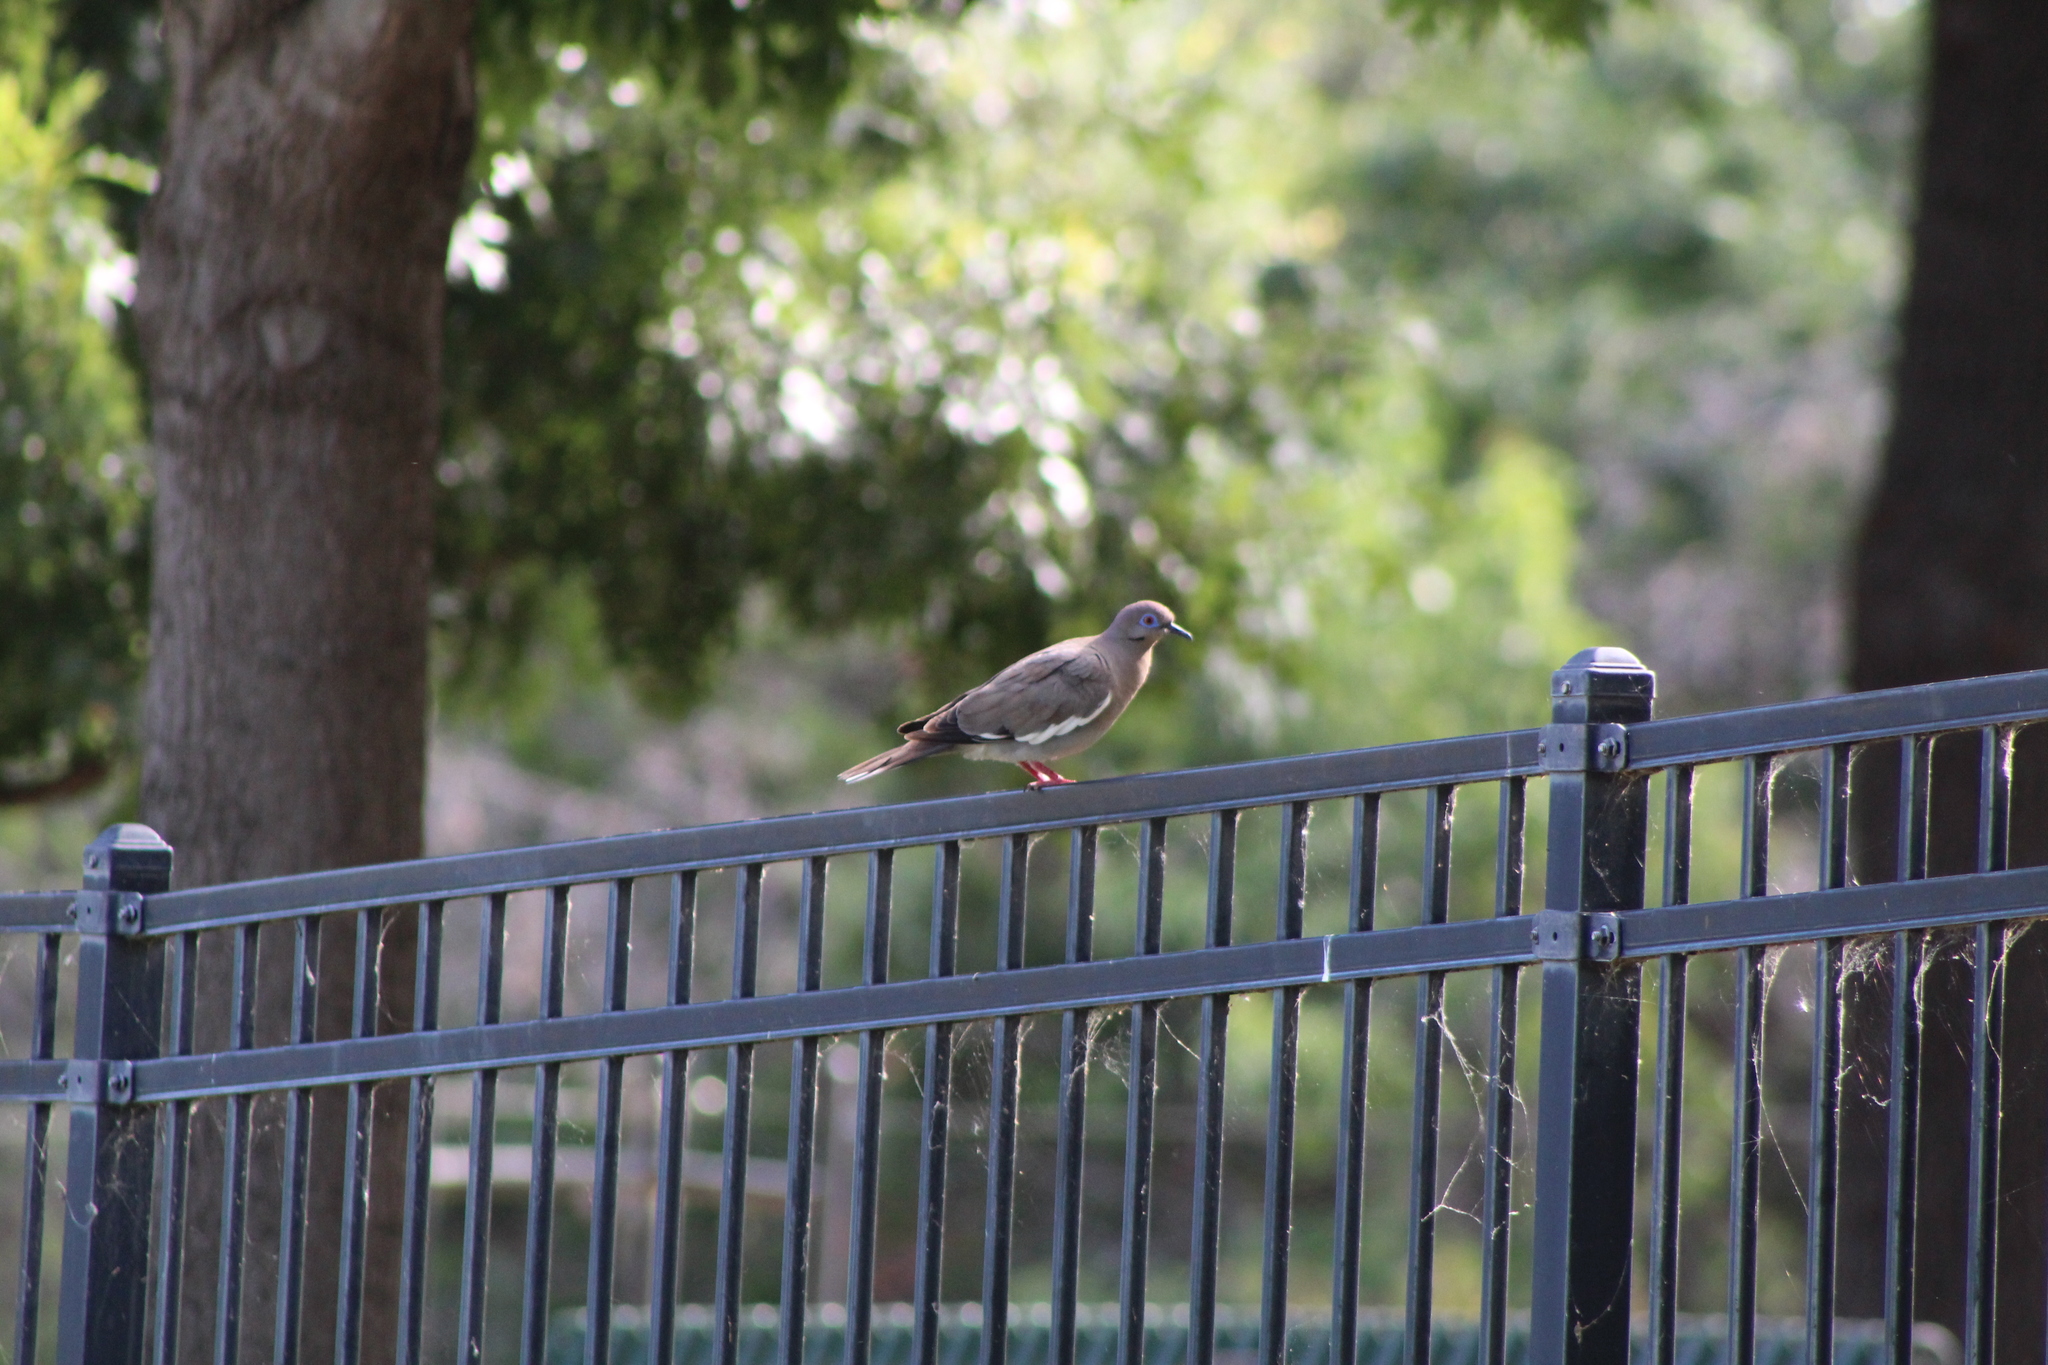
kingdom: Animalia
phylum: Chordata
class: Aves
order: Columbiformes
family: Columbidae
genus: Zenaida
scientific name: Zenaida asiatica
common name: White-winged dove
